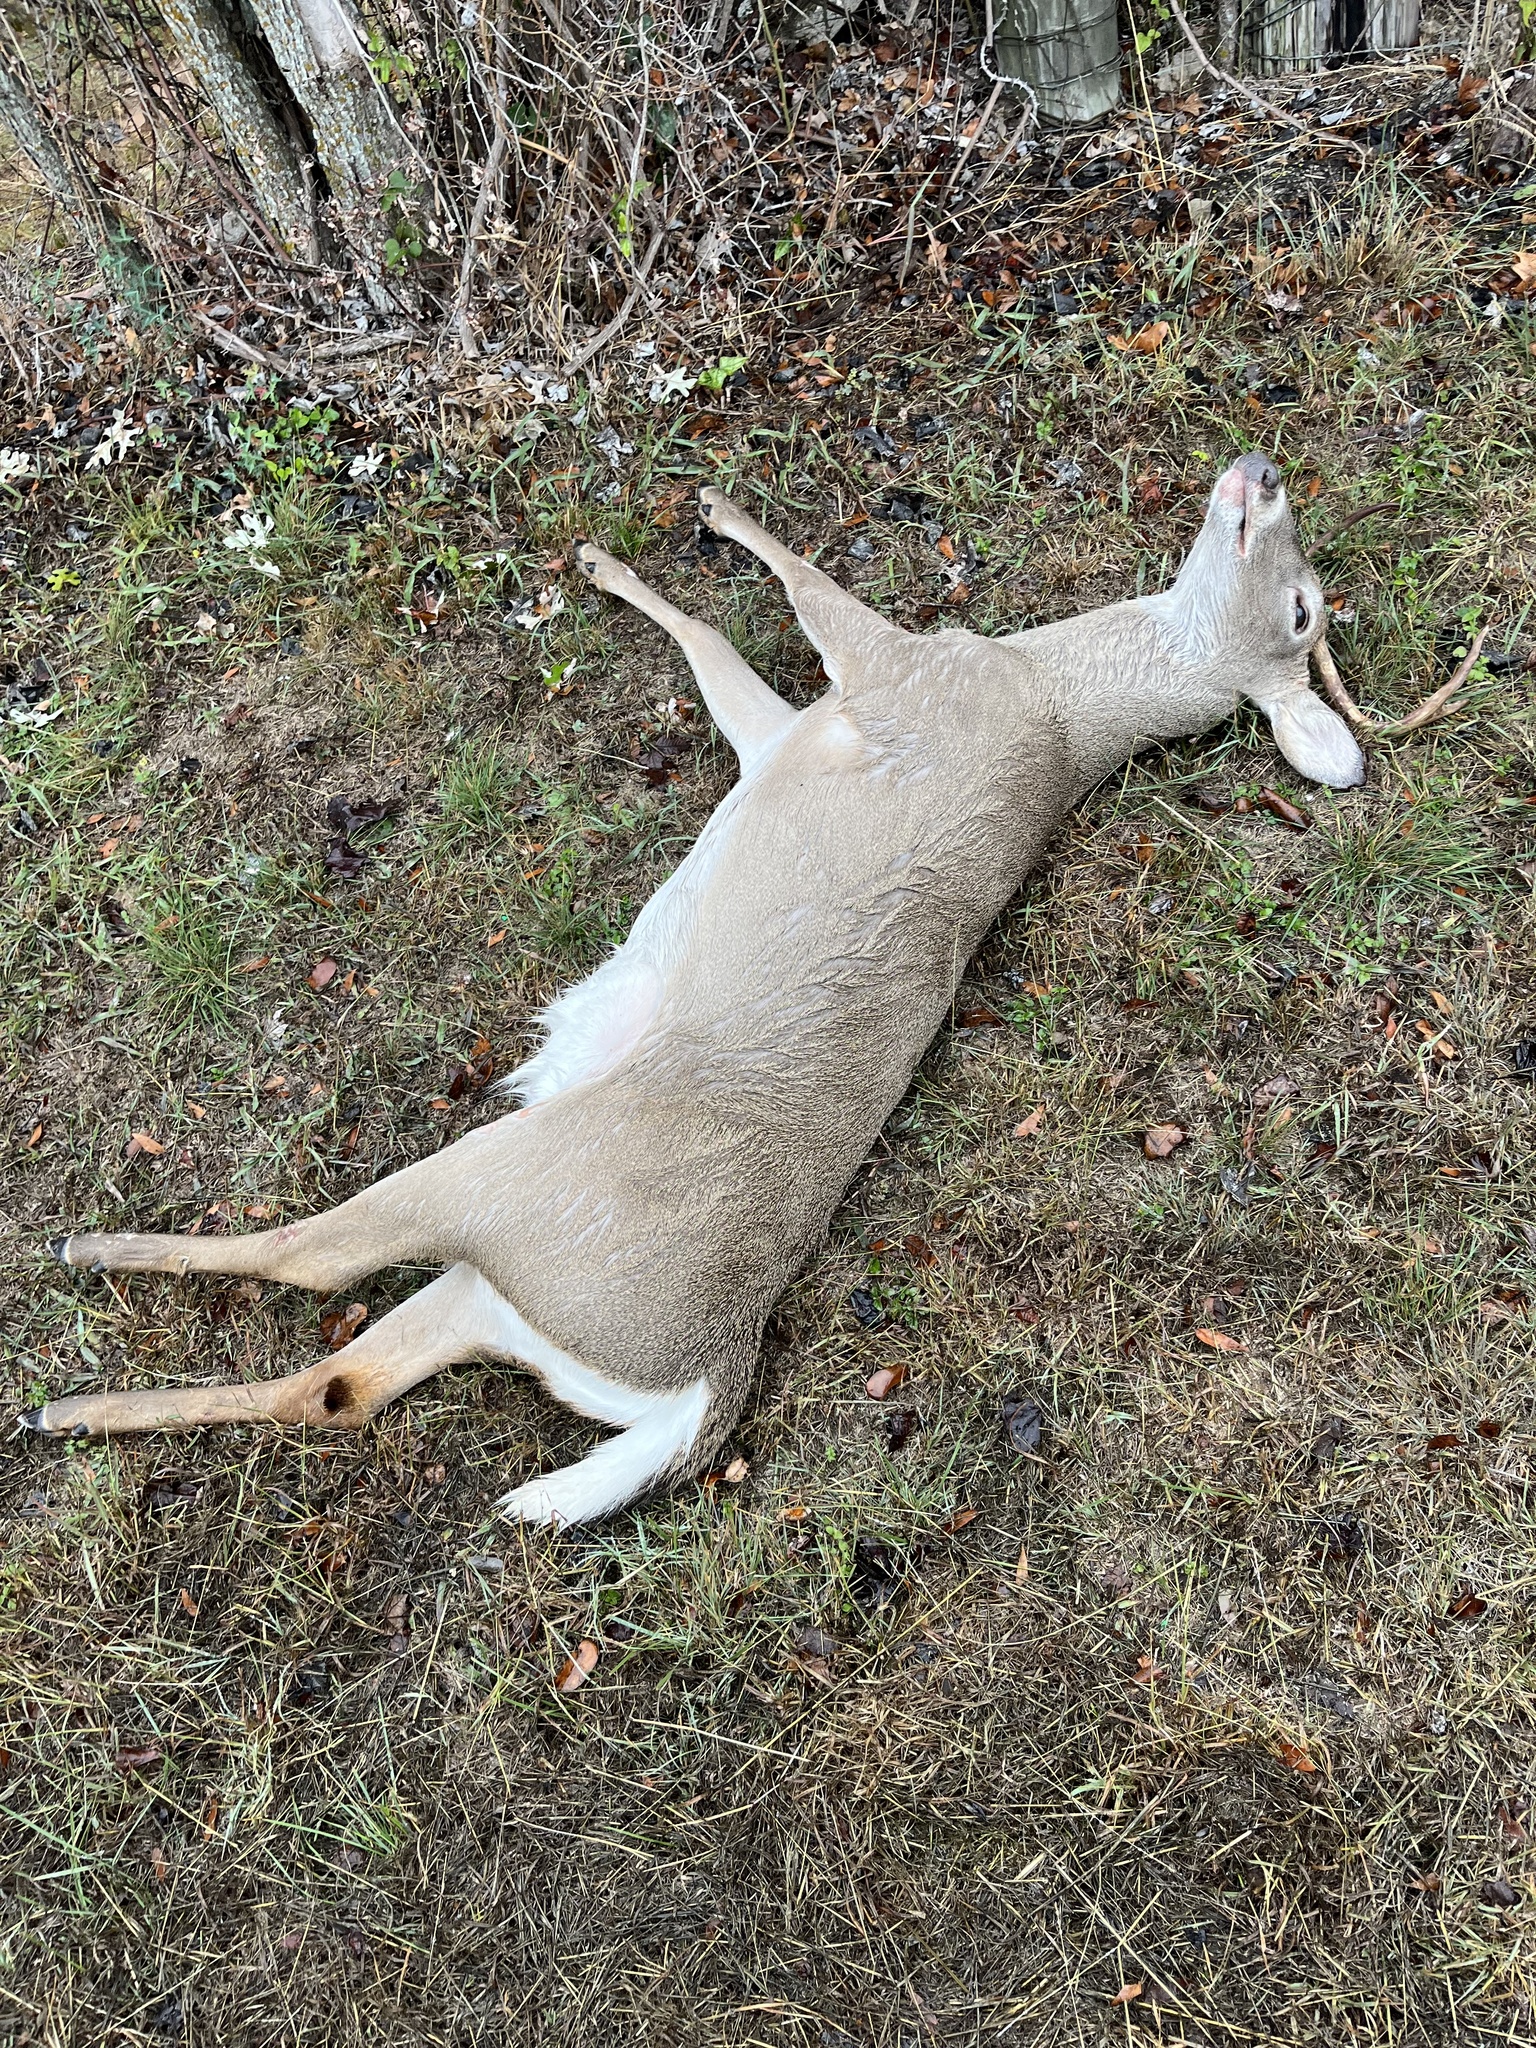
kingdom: Animalia
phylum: Chordata
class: Mammalia
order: Artiodactyla
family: Cervidae
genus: Odocoileus
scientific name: Odocoileus virginianus
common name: White-tailed deer
